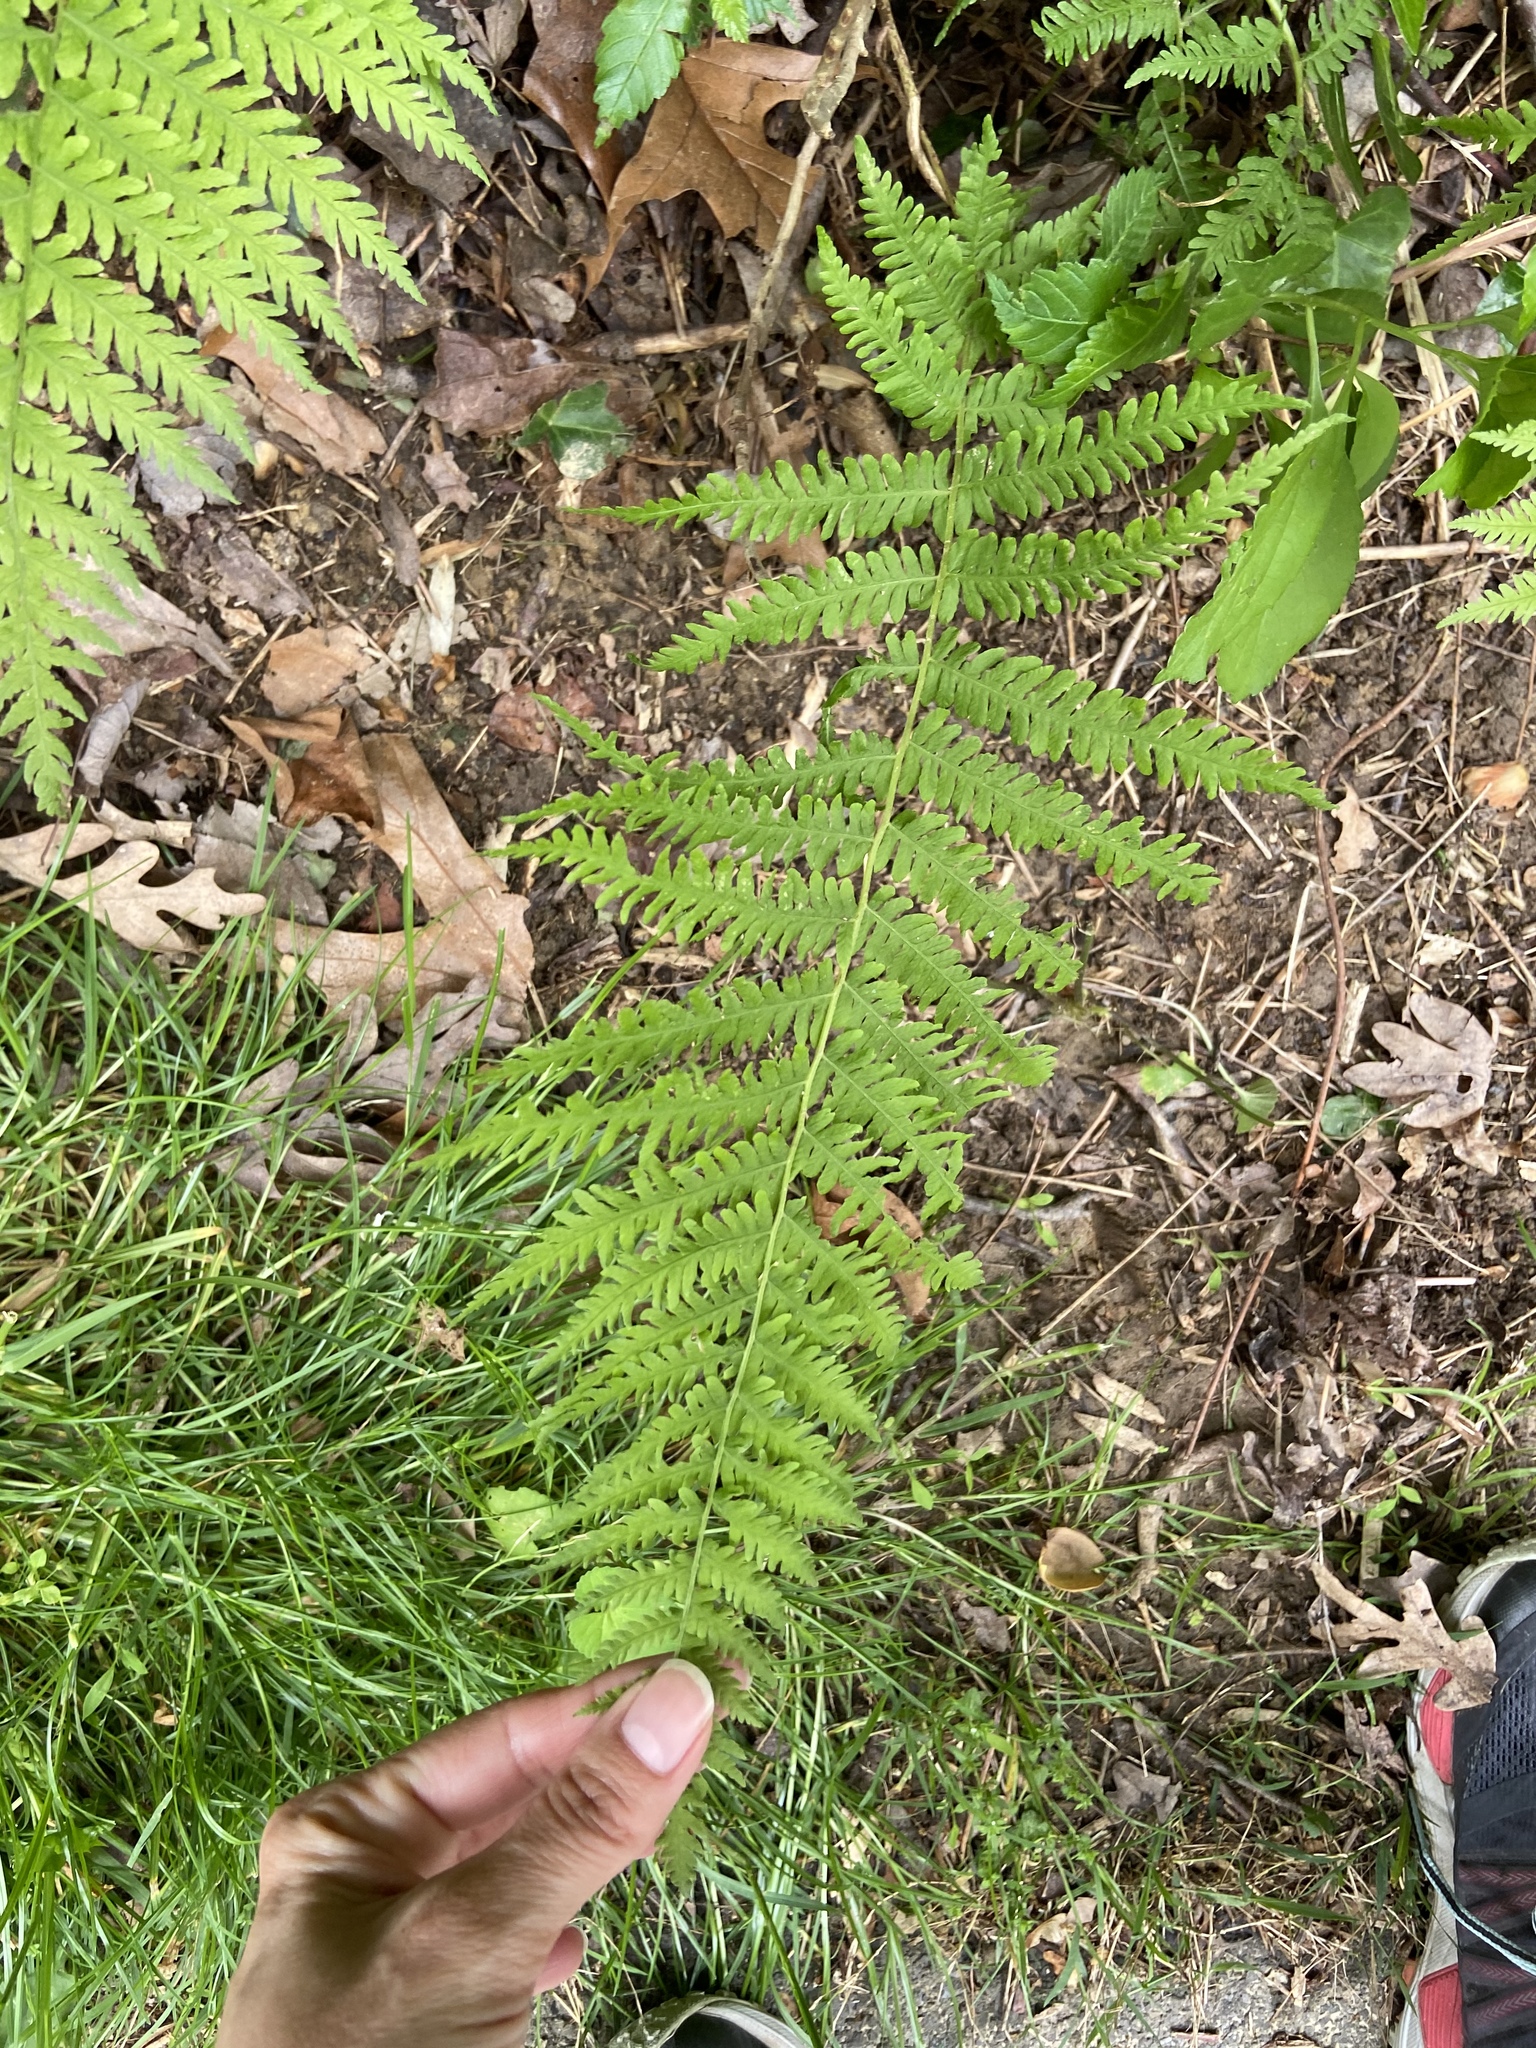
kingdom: Plantae
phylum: Tracheophyta
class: Polypodiopsida
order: Polypodiales
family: Thelypteridaceae
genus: Amauropelta
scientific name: Amauropelta noveboracensis
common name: New york fern
